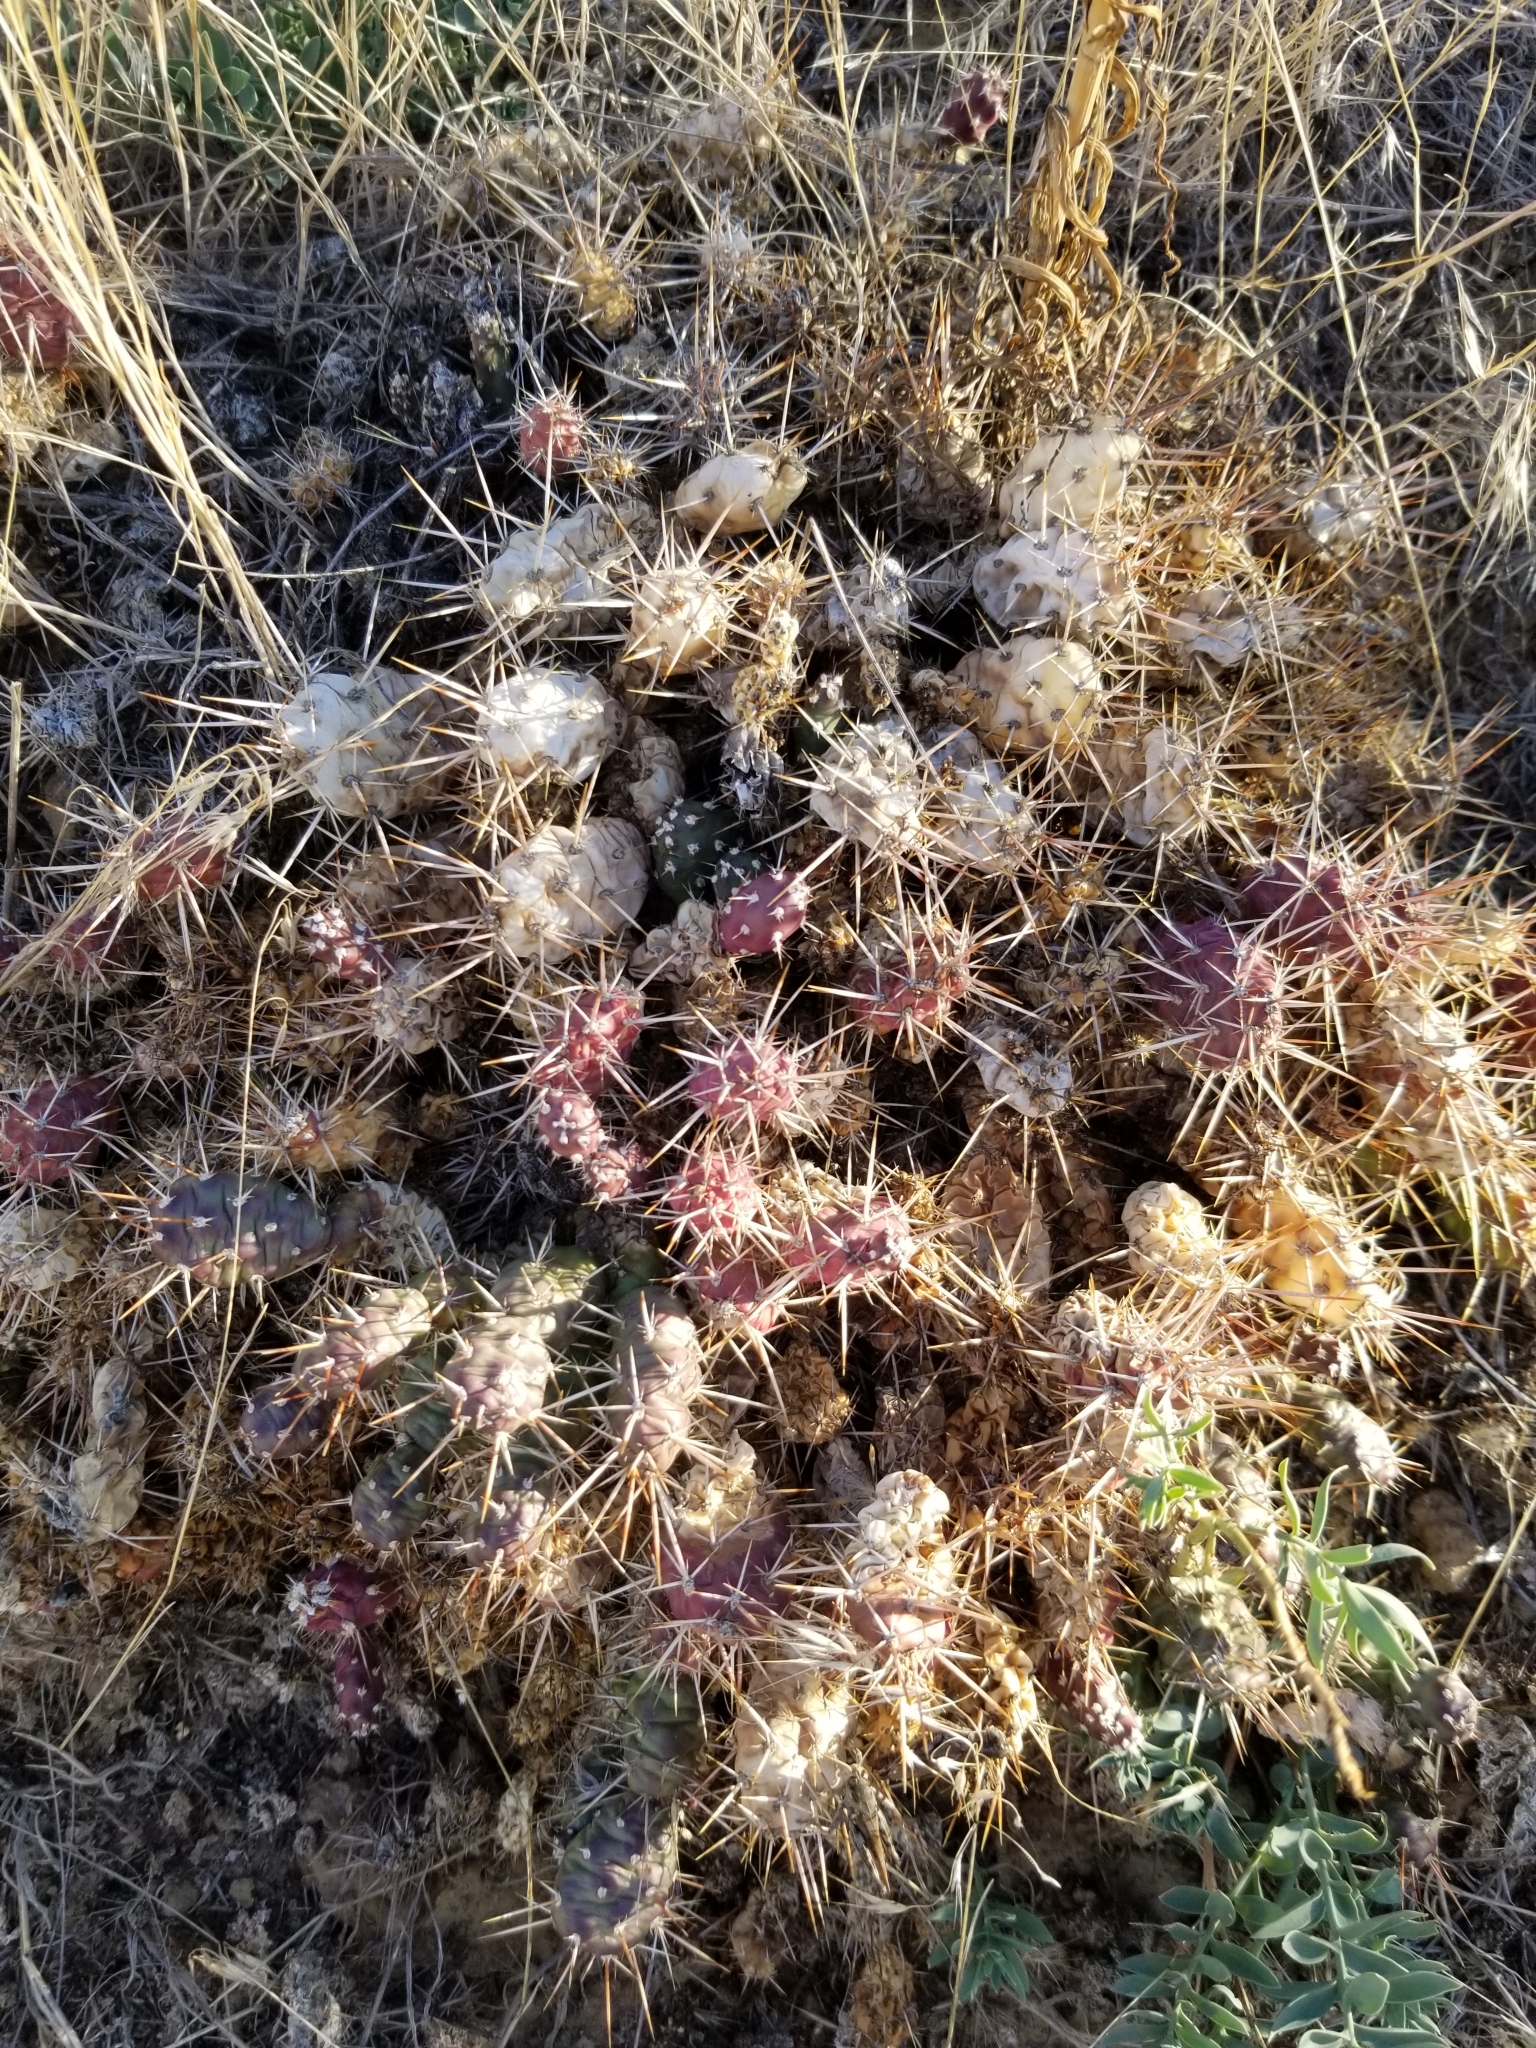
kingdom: Plantae
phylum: Tracheophyta
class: Magnoliopsida
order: Caryophyllales
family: Cactaceae
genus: Opuntia
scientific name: Opuntia fragilis
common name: Brittle cactus
